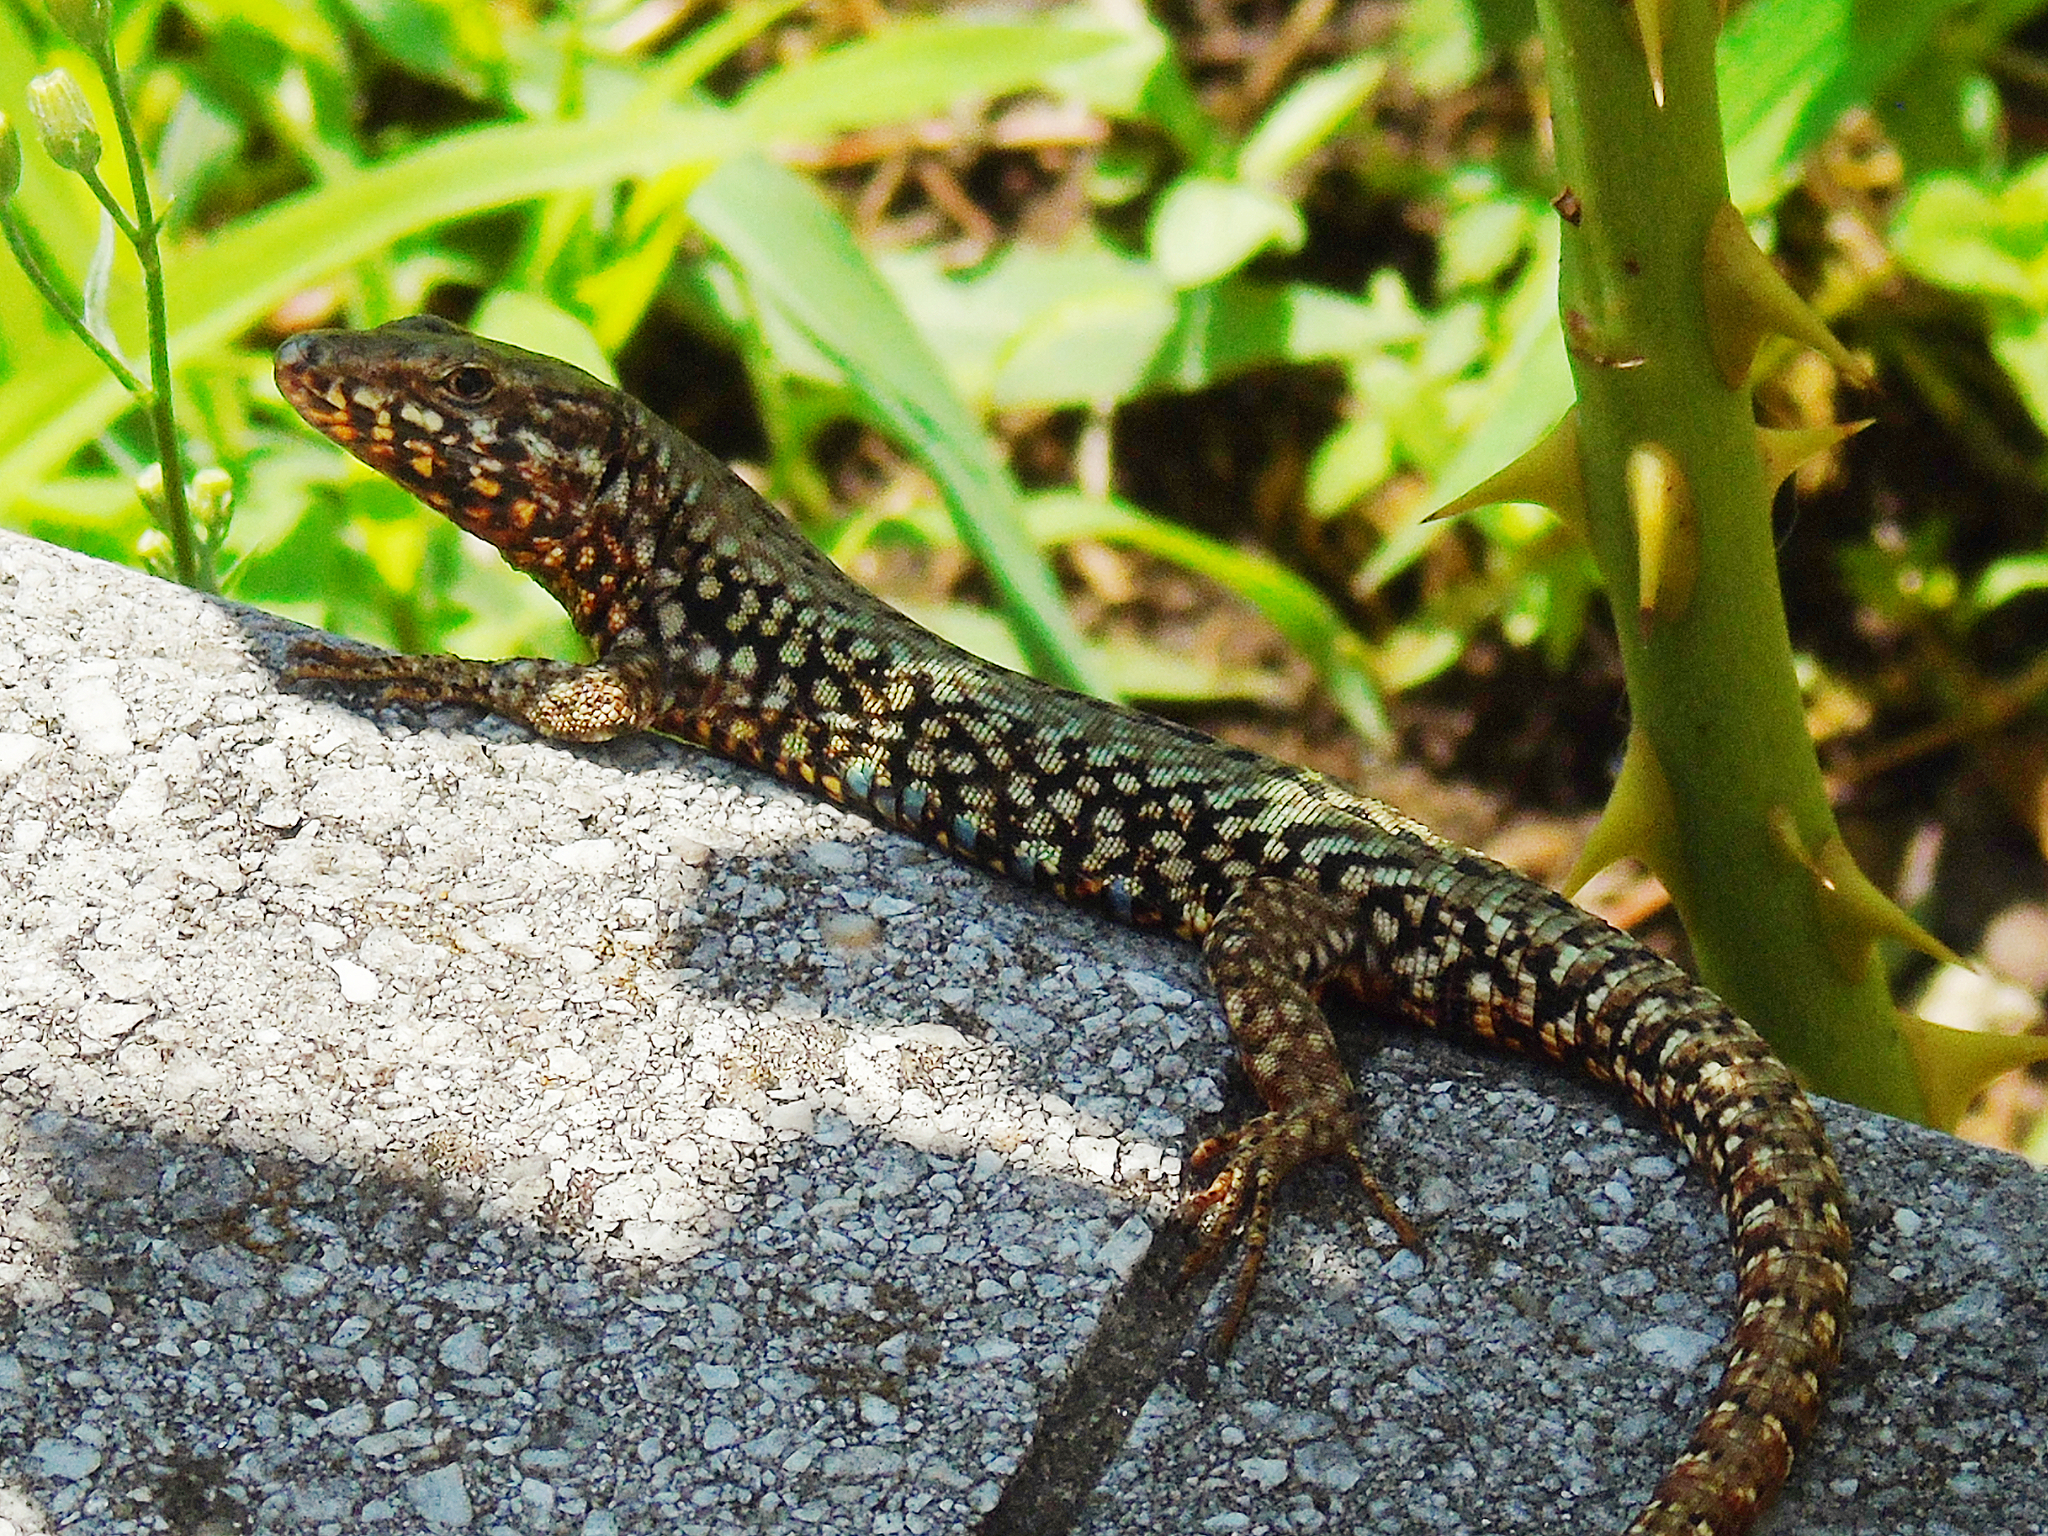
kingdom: Animalia
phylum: Chordata
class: Squamata
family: Lacertidae
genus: Podarcis
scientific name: Podarcis muralis
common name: Common wall lizard
